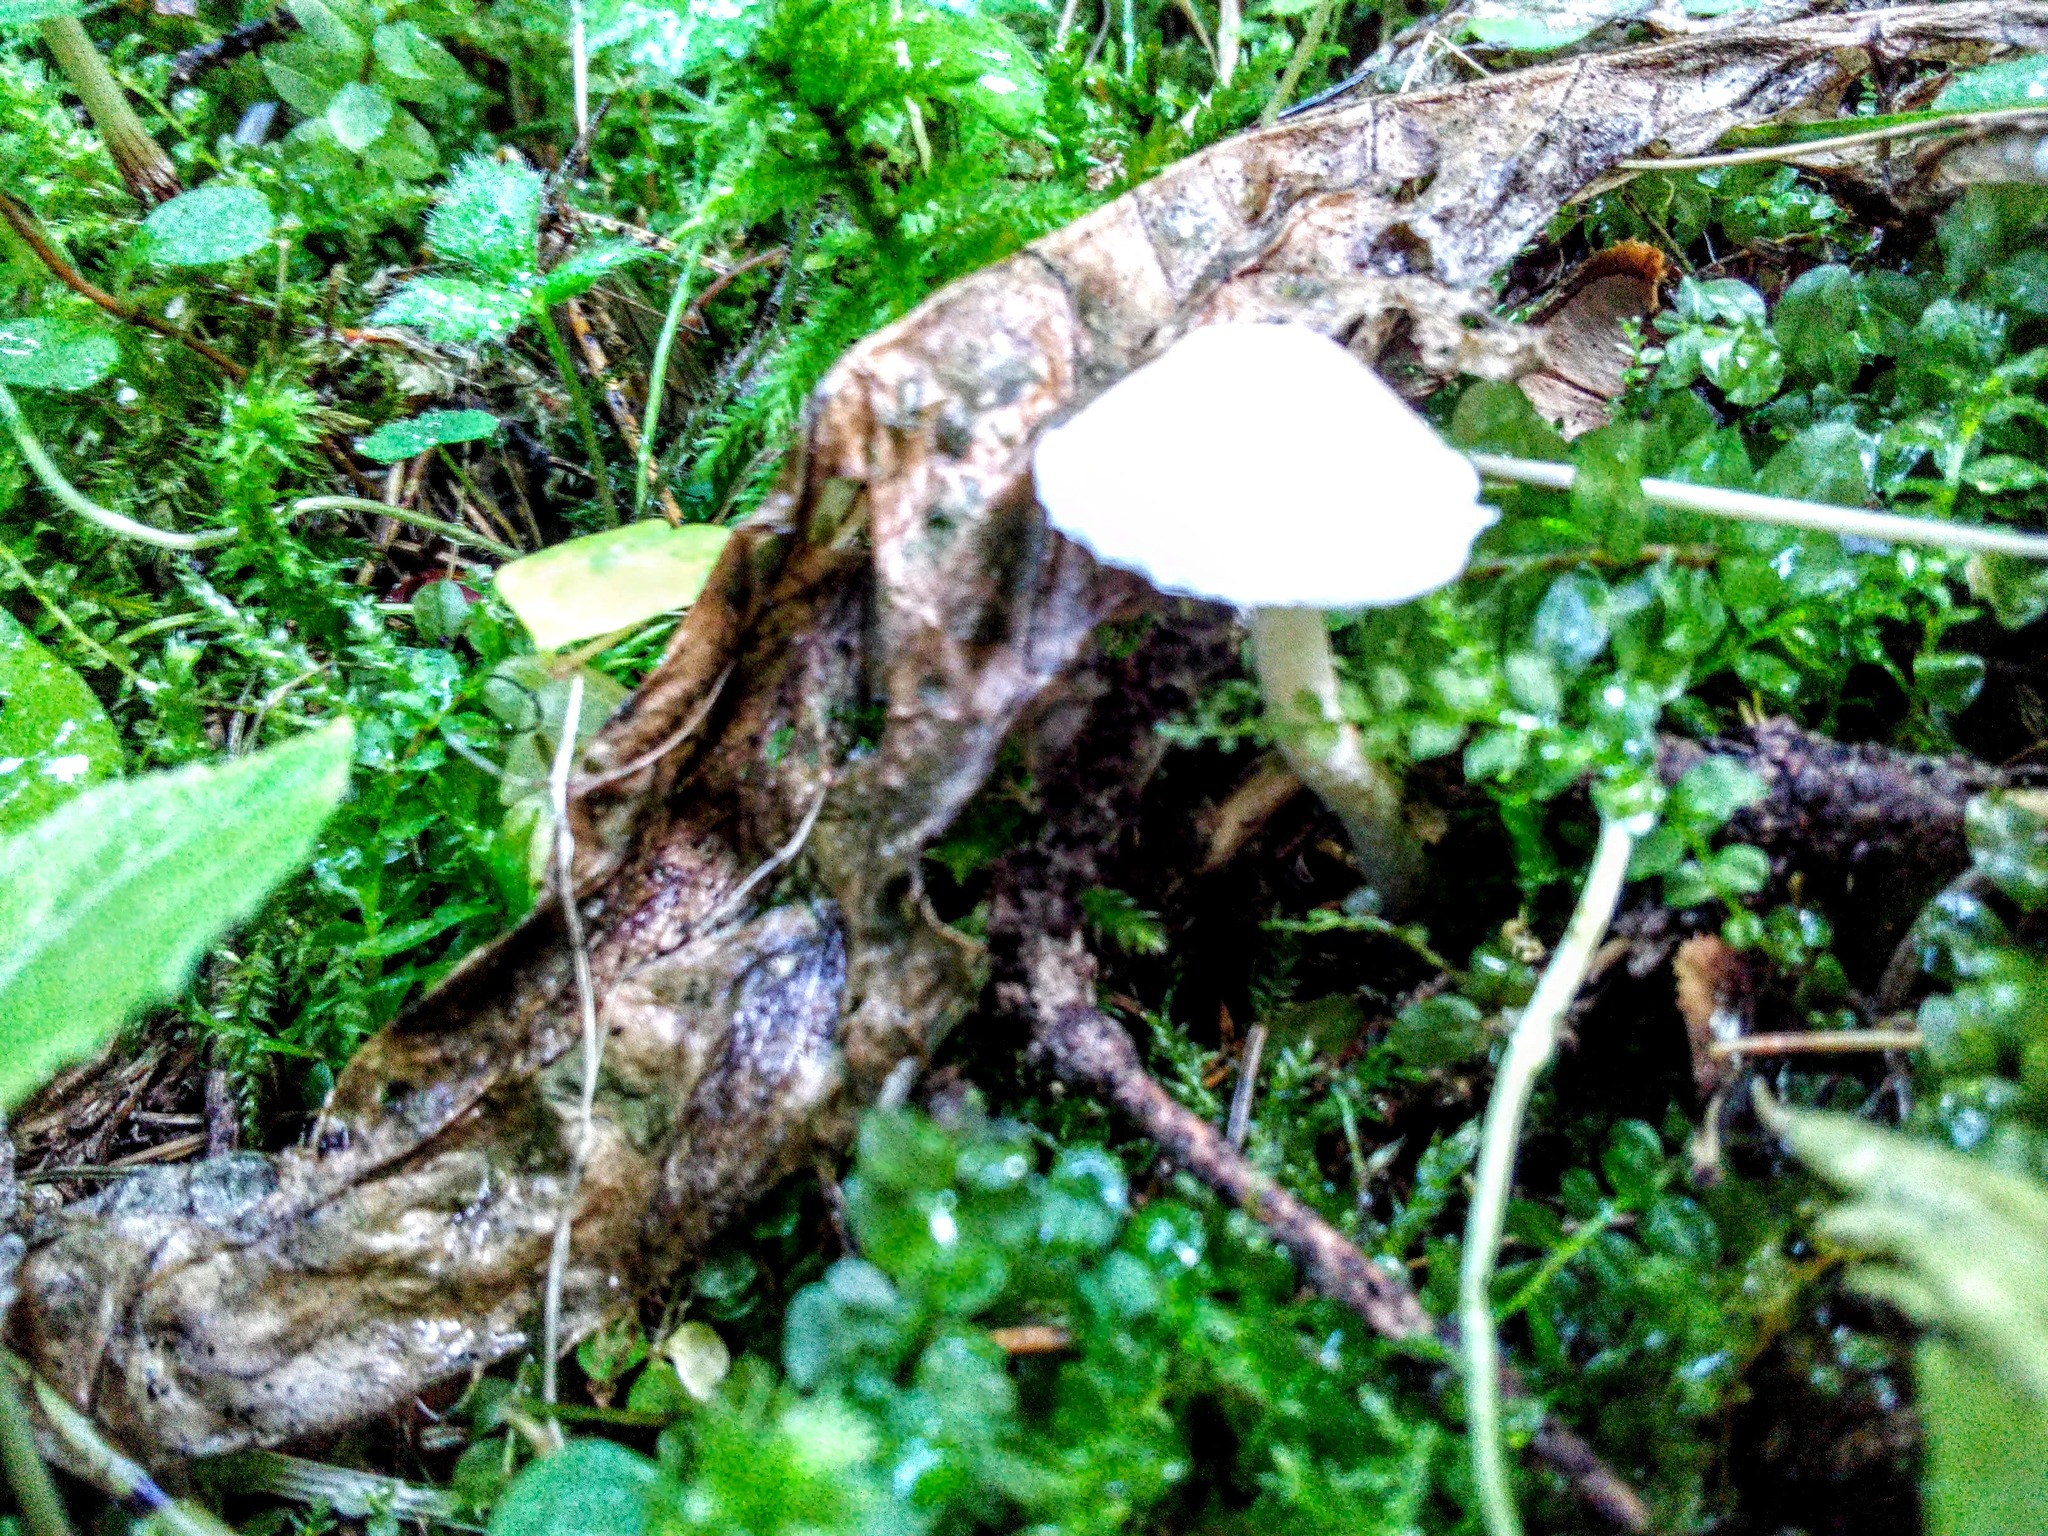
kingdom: Fungi
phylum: Basidiomycota
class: Agaricomycetes
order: Agaricales
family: Inocybaceae
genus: Inocybe
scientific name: Inocybe geophylla
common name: White fibrecap
